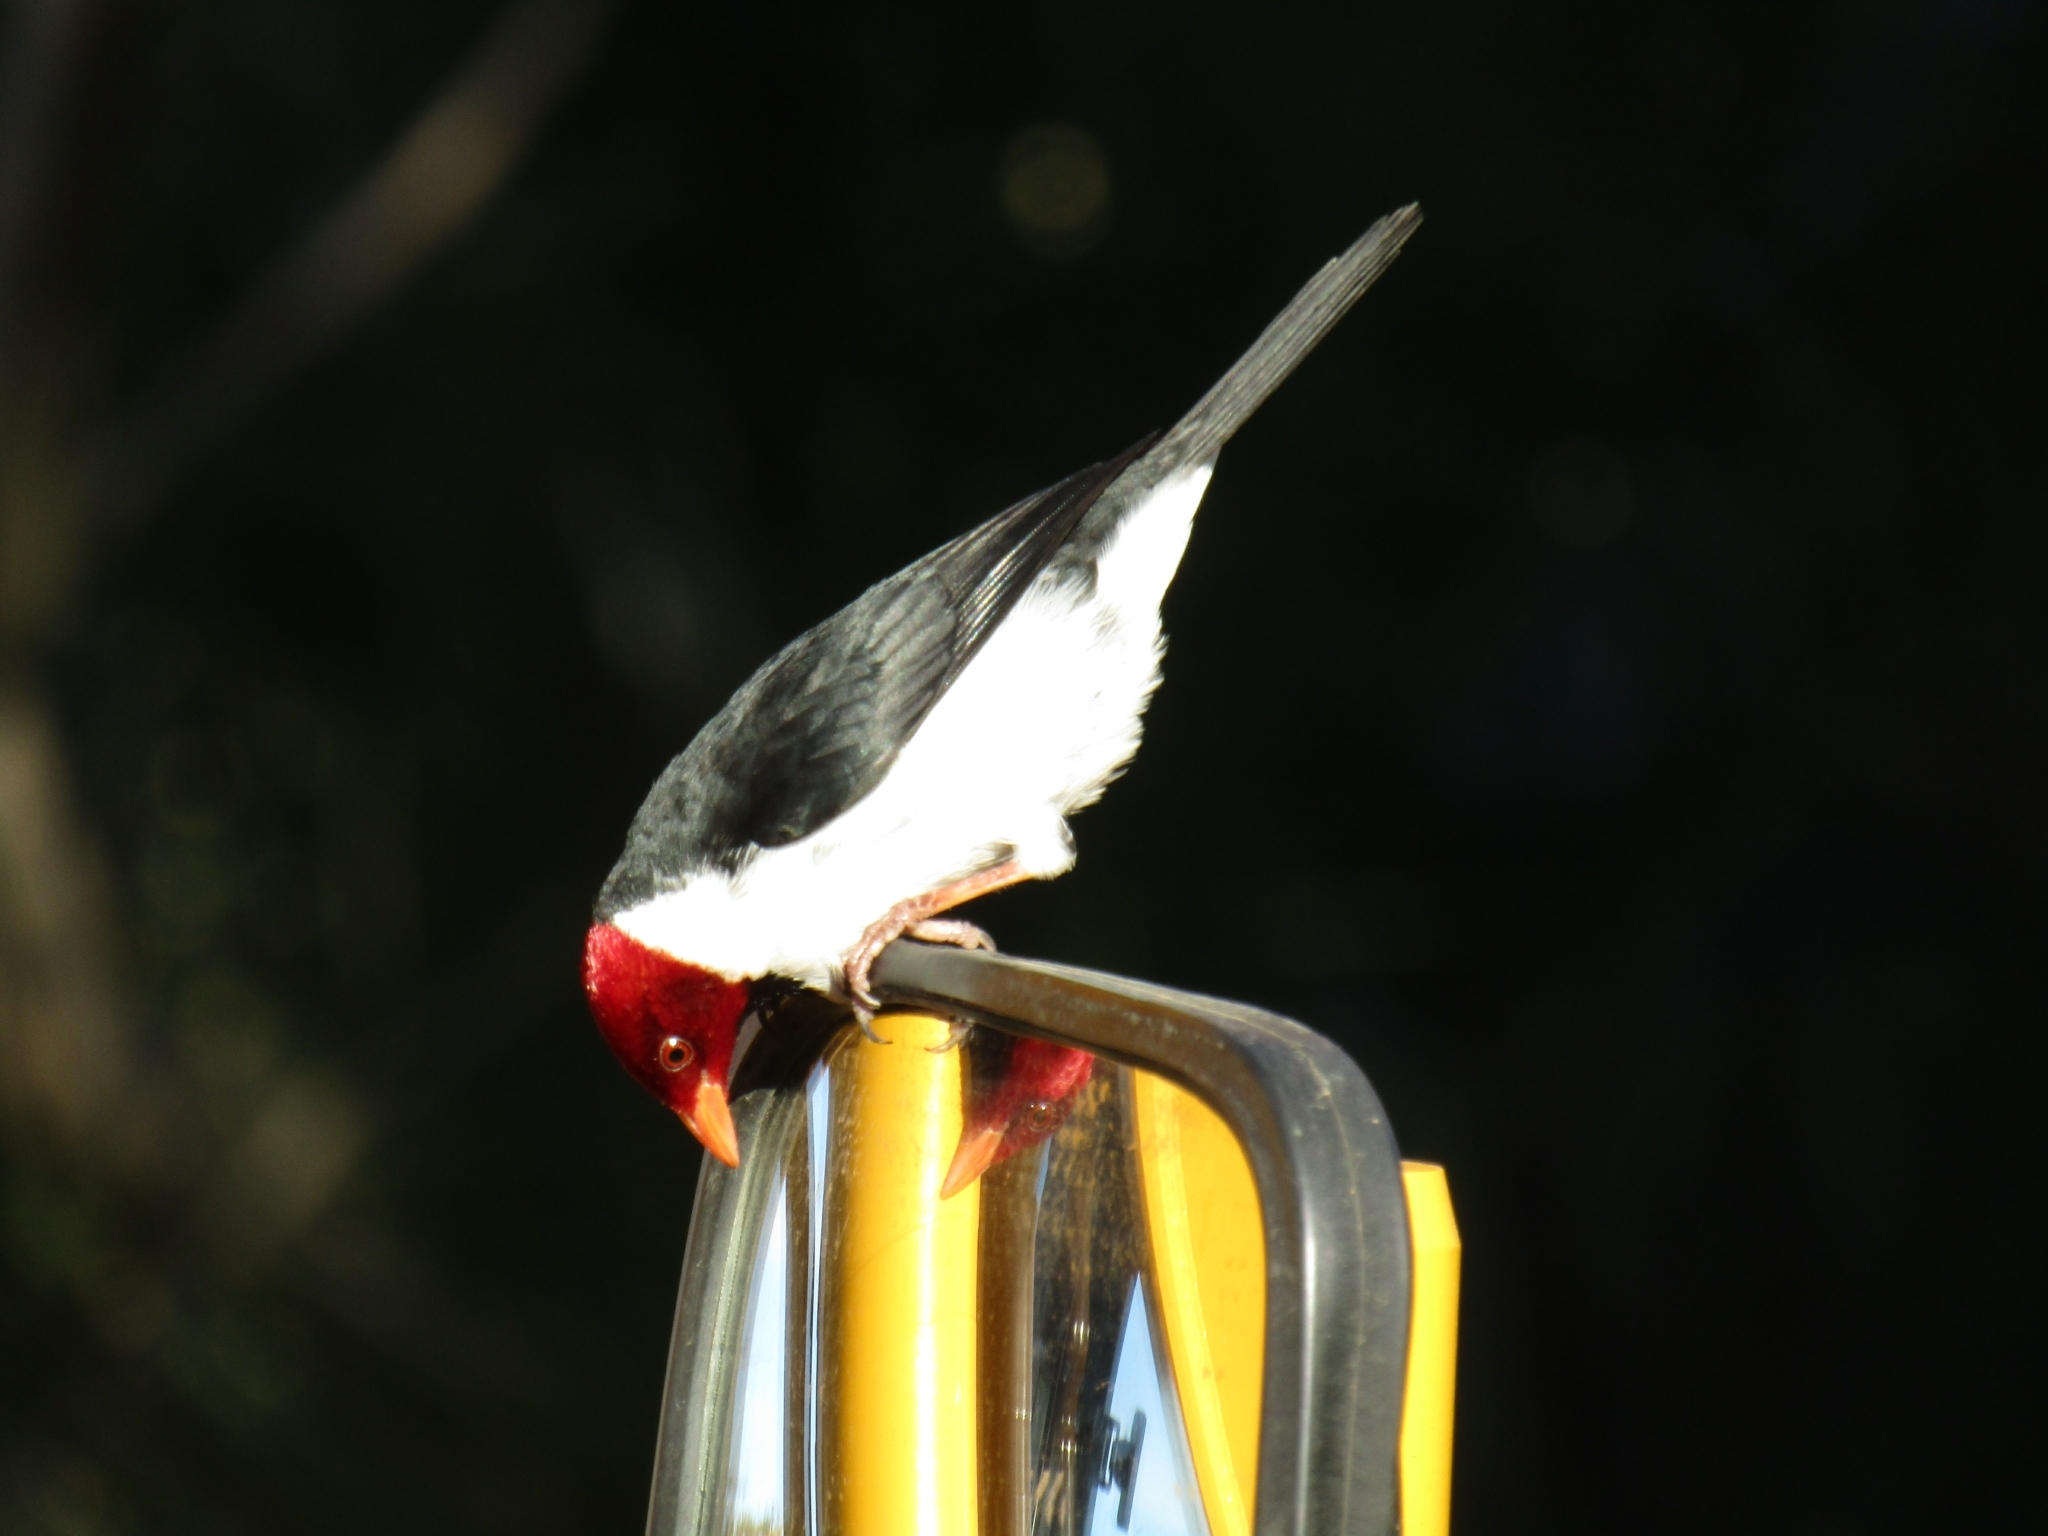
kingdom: Animalia
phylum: Chordata
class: Aves
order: Passeriformes
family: Thraupidae
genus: Paroaria
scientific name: Paroaria capitata
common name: Yellow-billed cardinal
